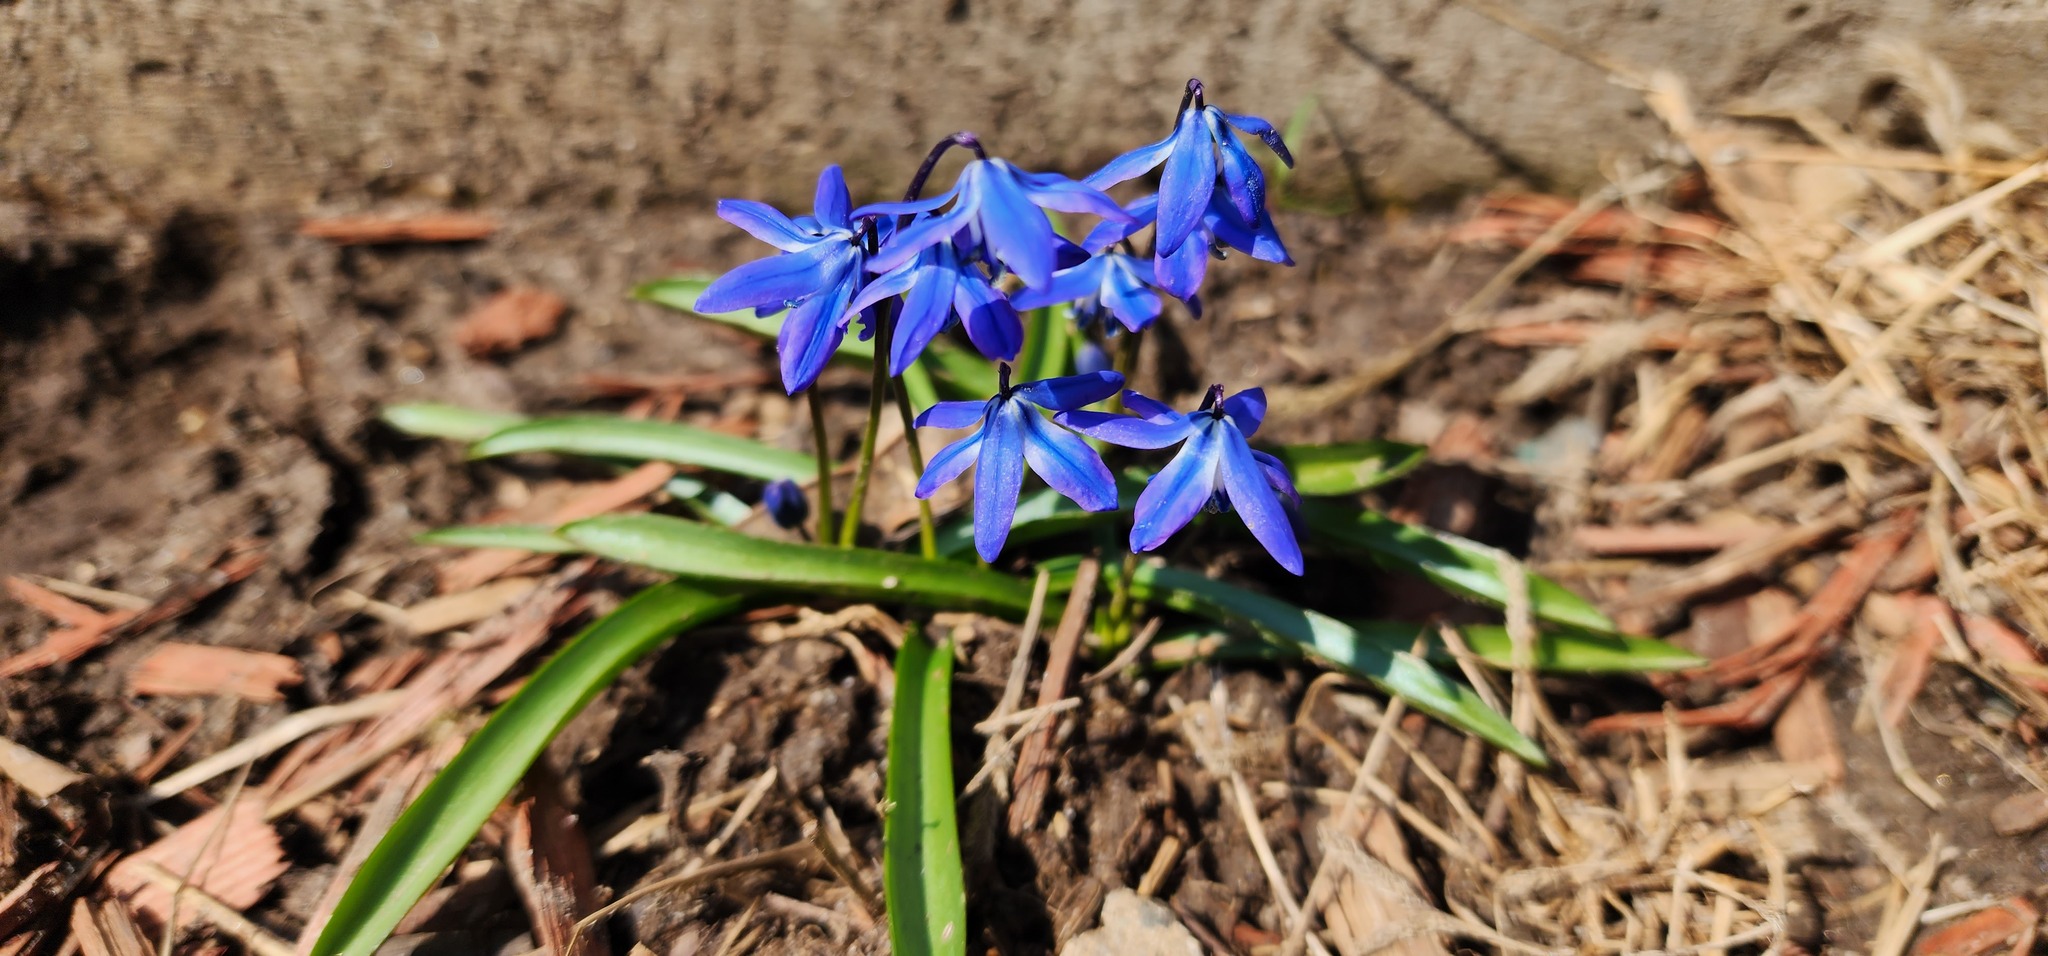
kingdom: Plantae
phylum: Tracheophyta
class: Liliopsida
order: Asparagales
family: Asparagaceae
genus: Scilla
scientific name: Scilla siberica
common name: Siberian squill
